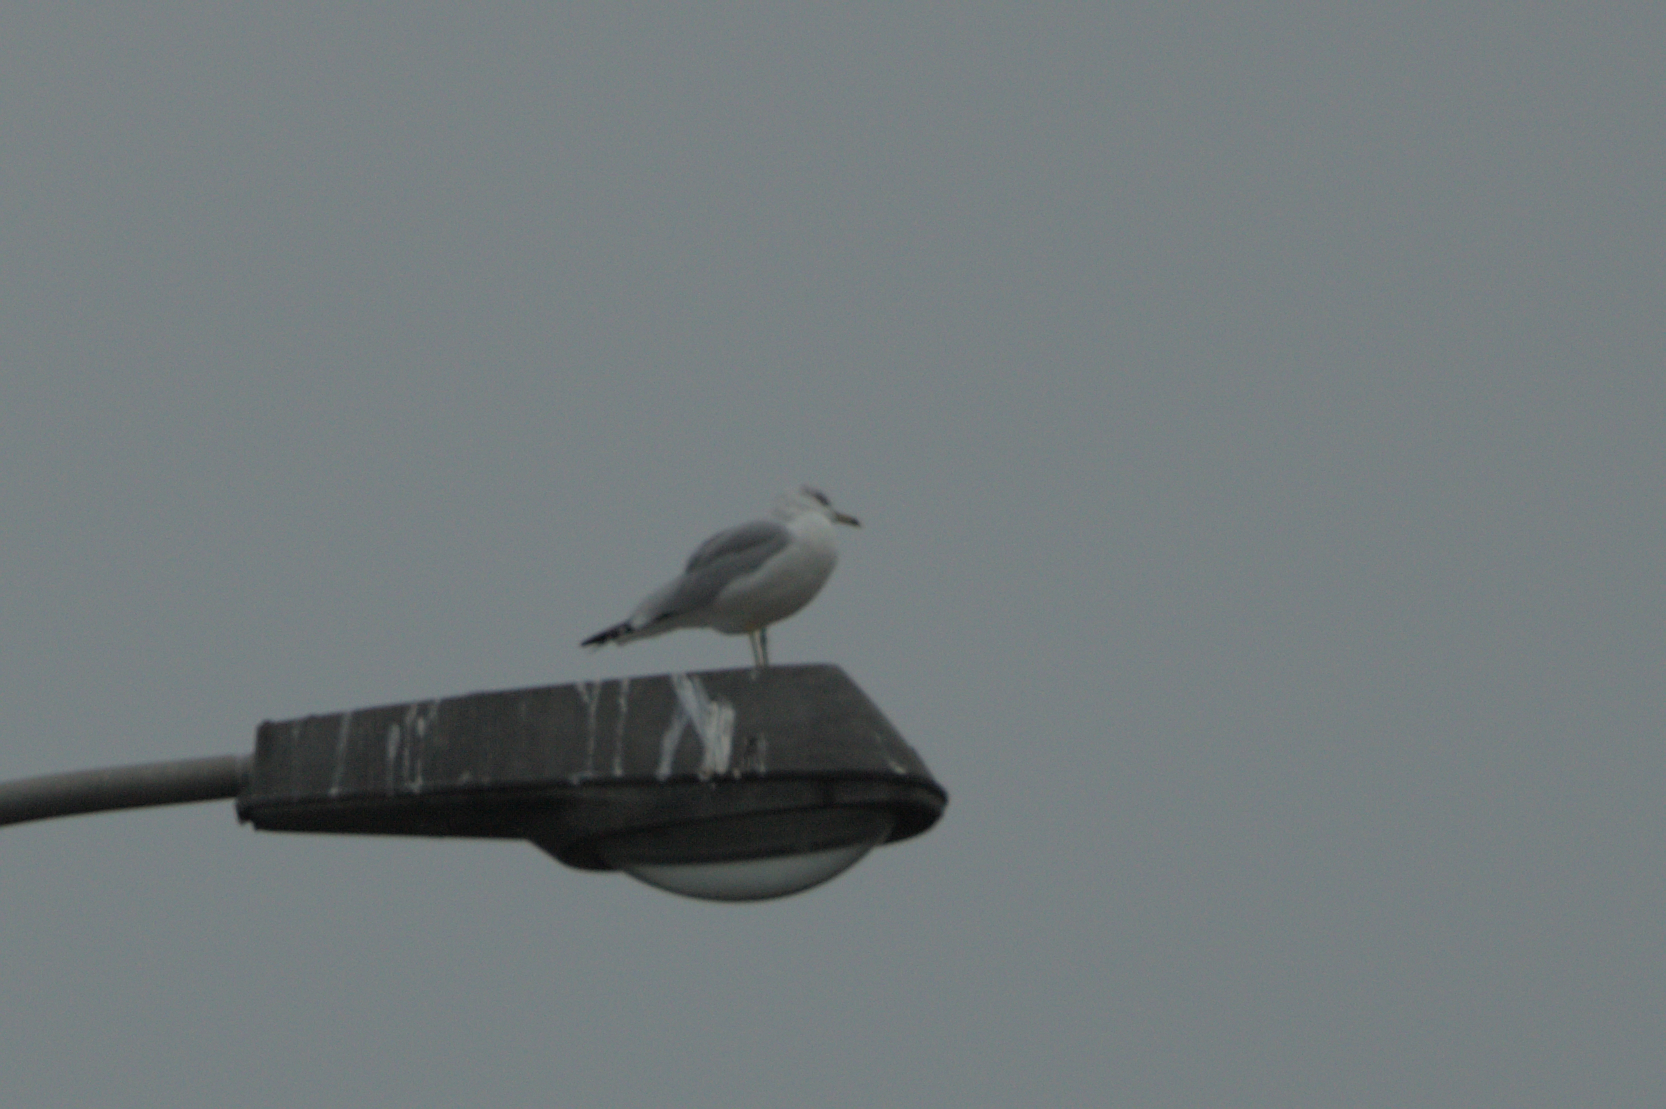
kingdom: Animalia
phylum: Chordata
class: Aves
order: Charadriiformes
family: Laridae
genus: Larus
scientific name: Larus delawarensis
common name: Ring-billed gull
